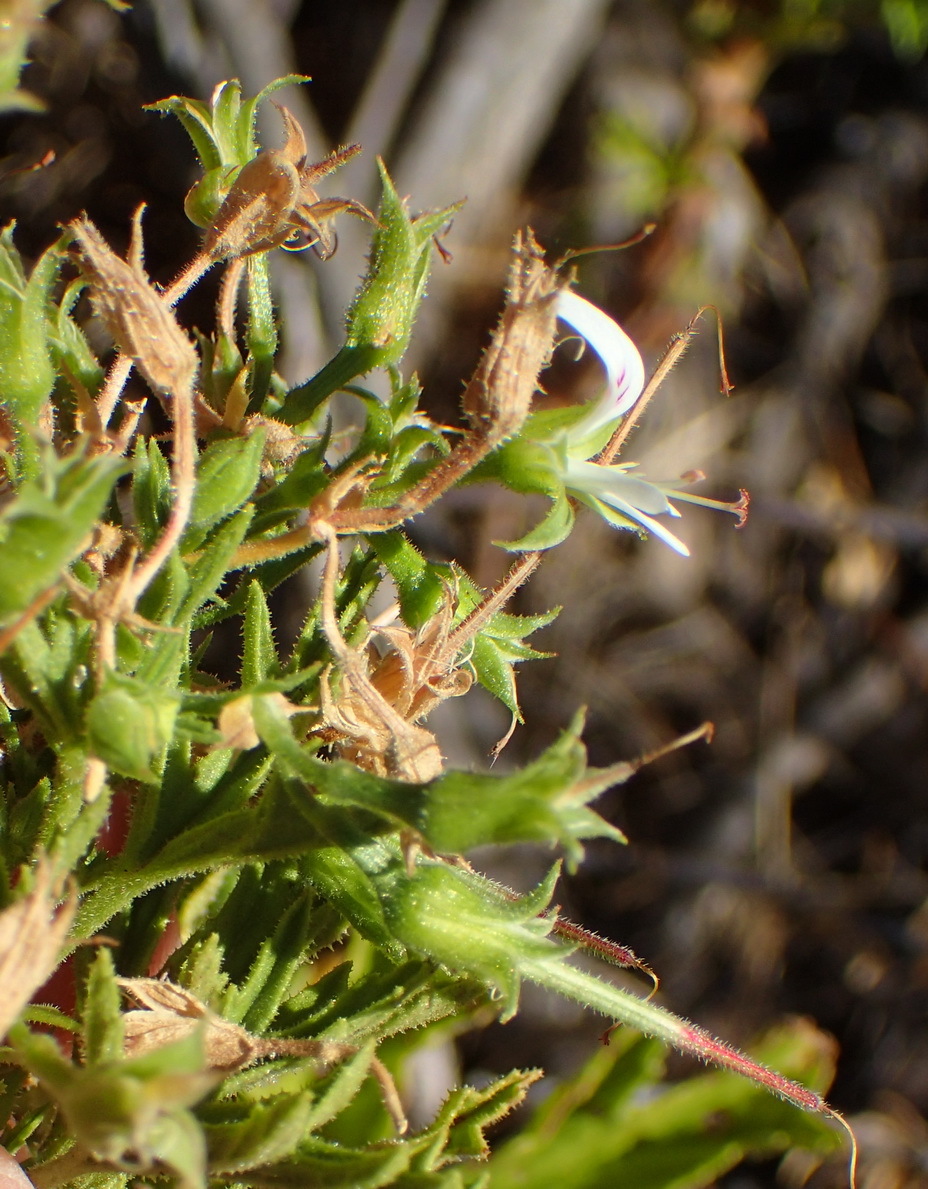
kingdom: Plantae
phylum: Tracheophyta
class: Magnoliopsida
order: Geraniales
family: Geraniaceae
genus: Pelargonium
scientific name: Pelargonium ribifolium
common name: Currant-leaf pelargonium
